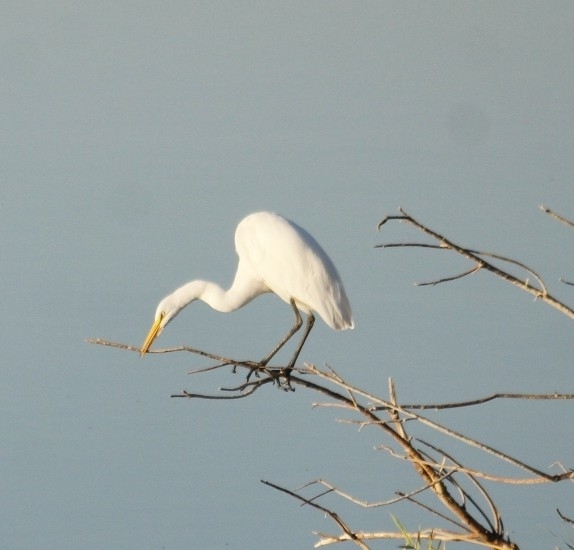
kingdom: Animalia
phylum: Chordata
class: Aves
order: Pelecaniformes
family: Ardeidae
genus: Ardea
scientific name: Ardea alba
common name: Great egret
